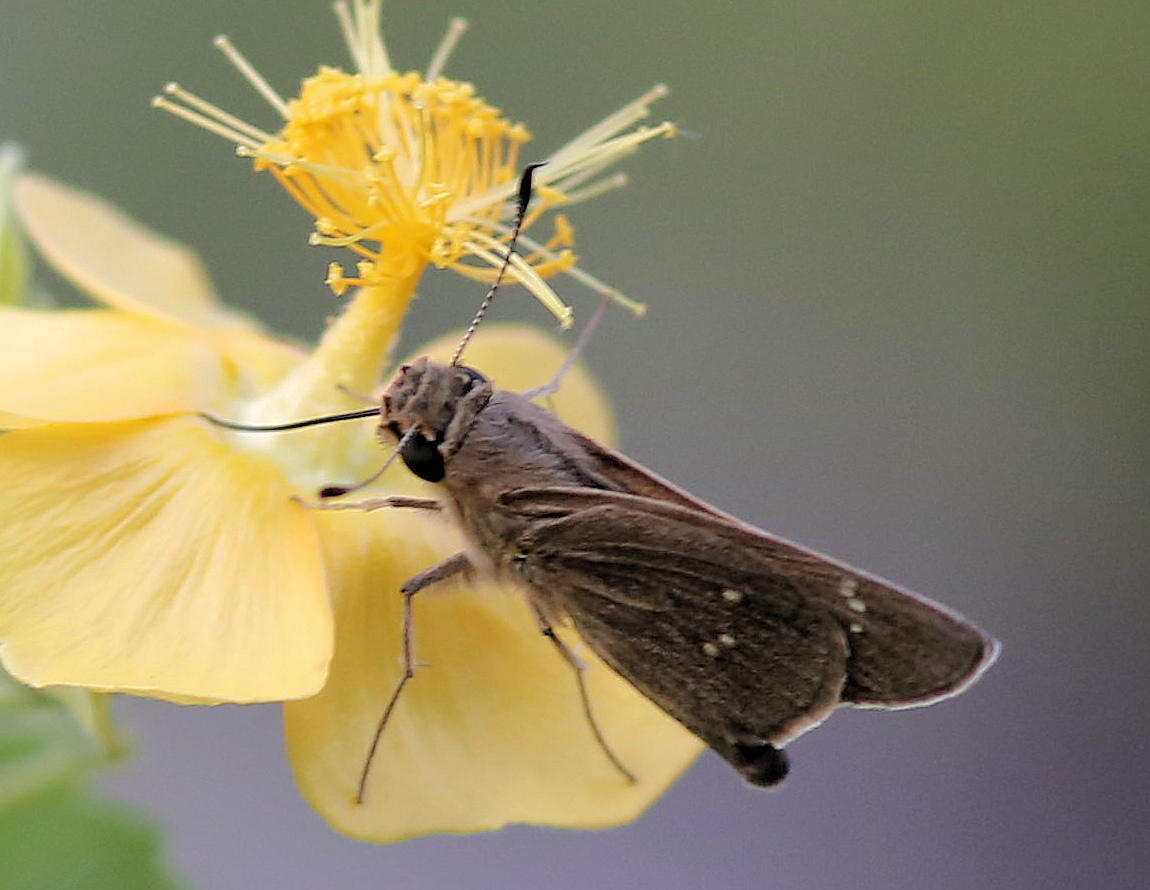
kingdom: Animalia
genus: Torbenlarsenia
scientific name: Torbenlarsenia
